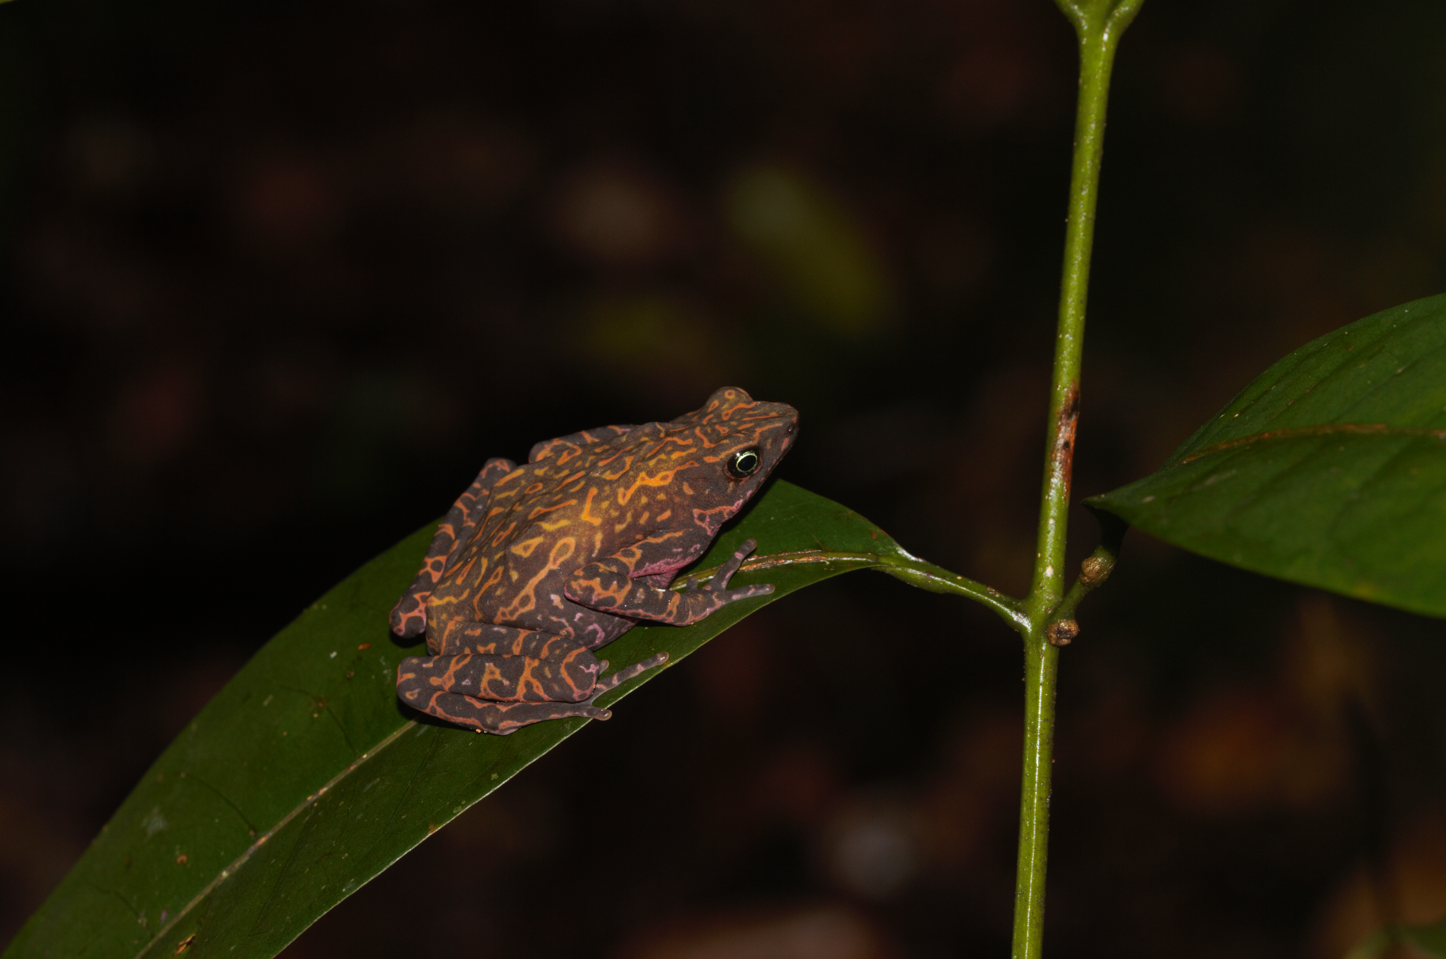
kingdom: Animalia
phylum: Chordata
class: Amphibia
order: Anura
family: Bufonidae
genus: Atelopus
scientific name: Atelopus flavescens
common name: Cayenne stubfoot toad
